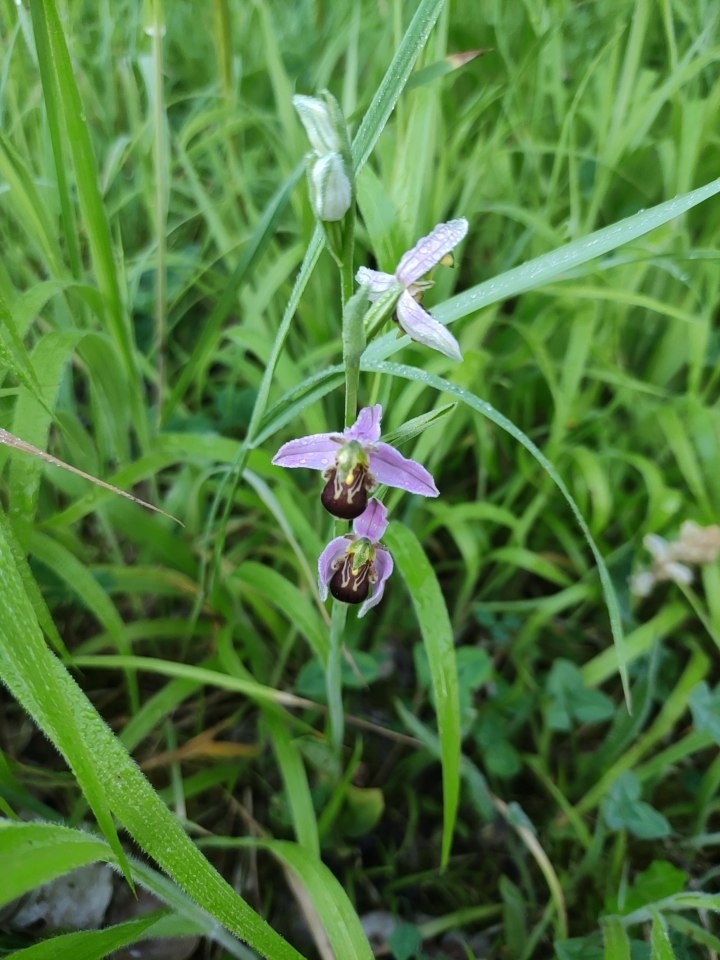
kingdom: Plantae
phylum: Tracheophyta
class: Liliopsida
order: Asparagales
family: Orchidaceae
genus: Ophrys
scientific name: Ophrys apifera
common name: Bee orchid
